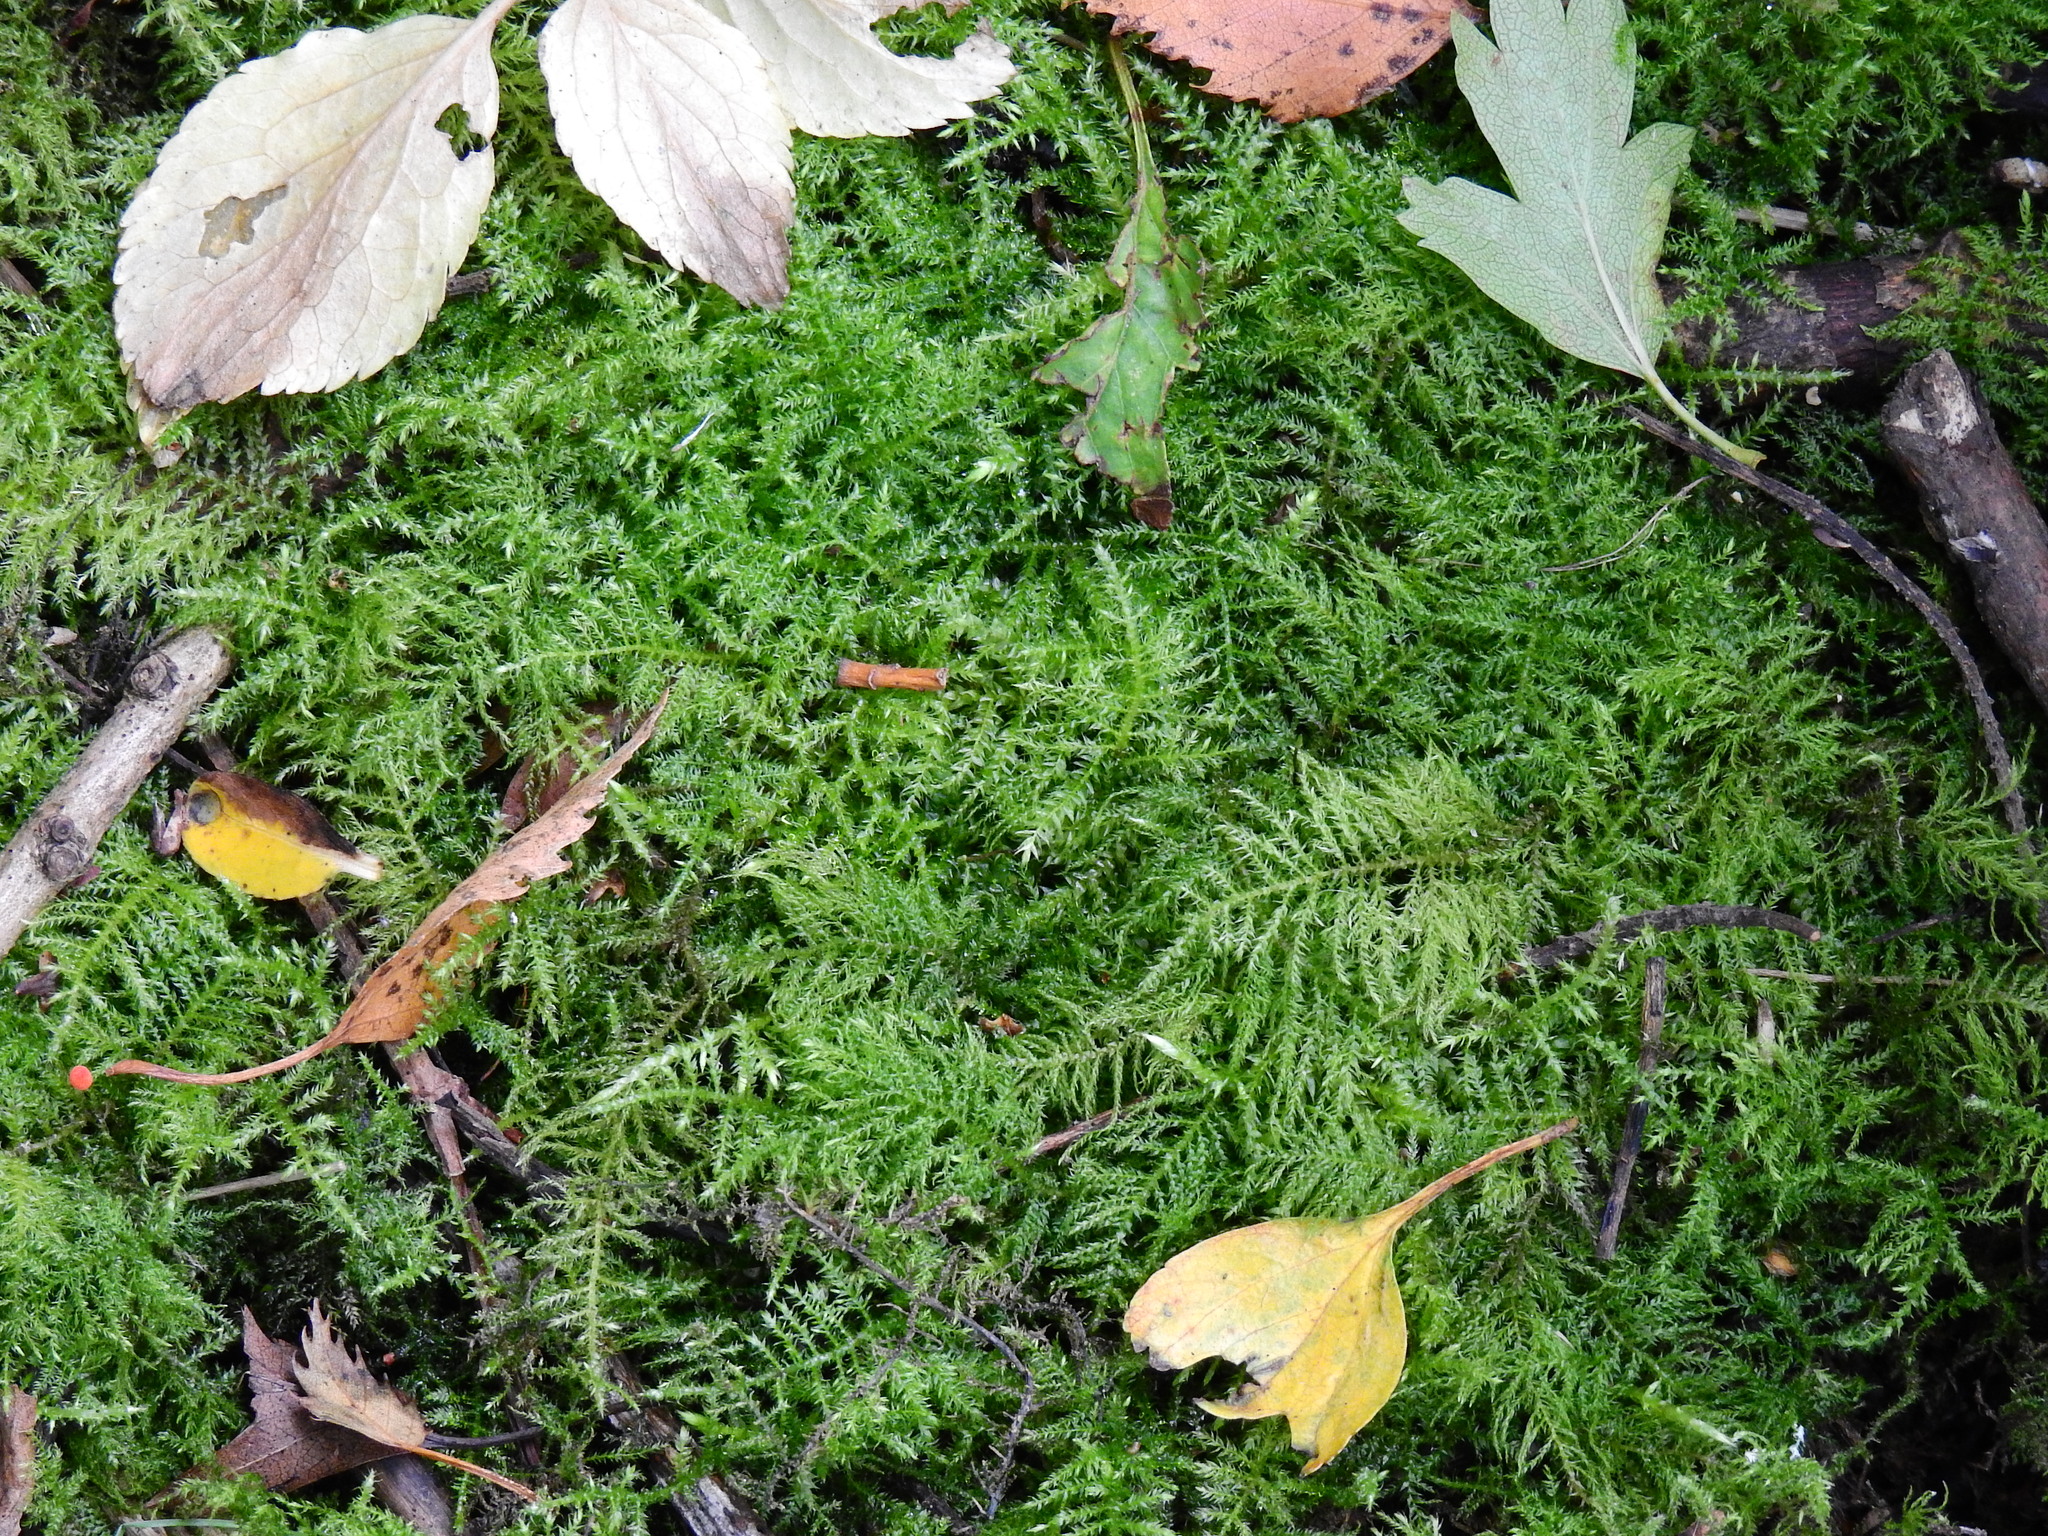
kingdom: Plantae
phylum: Bryophyta
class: Bryopsida
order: Hypnales
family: Brachytheciaceae
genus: Kindbergia
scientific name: Kindbergia praelonga
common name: Slender beaked moss
